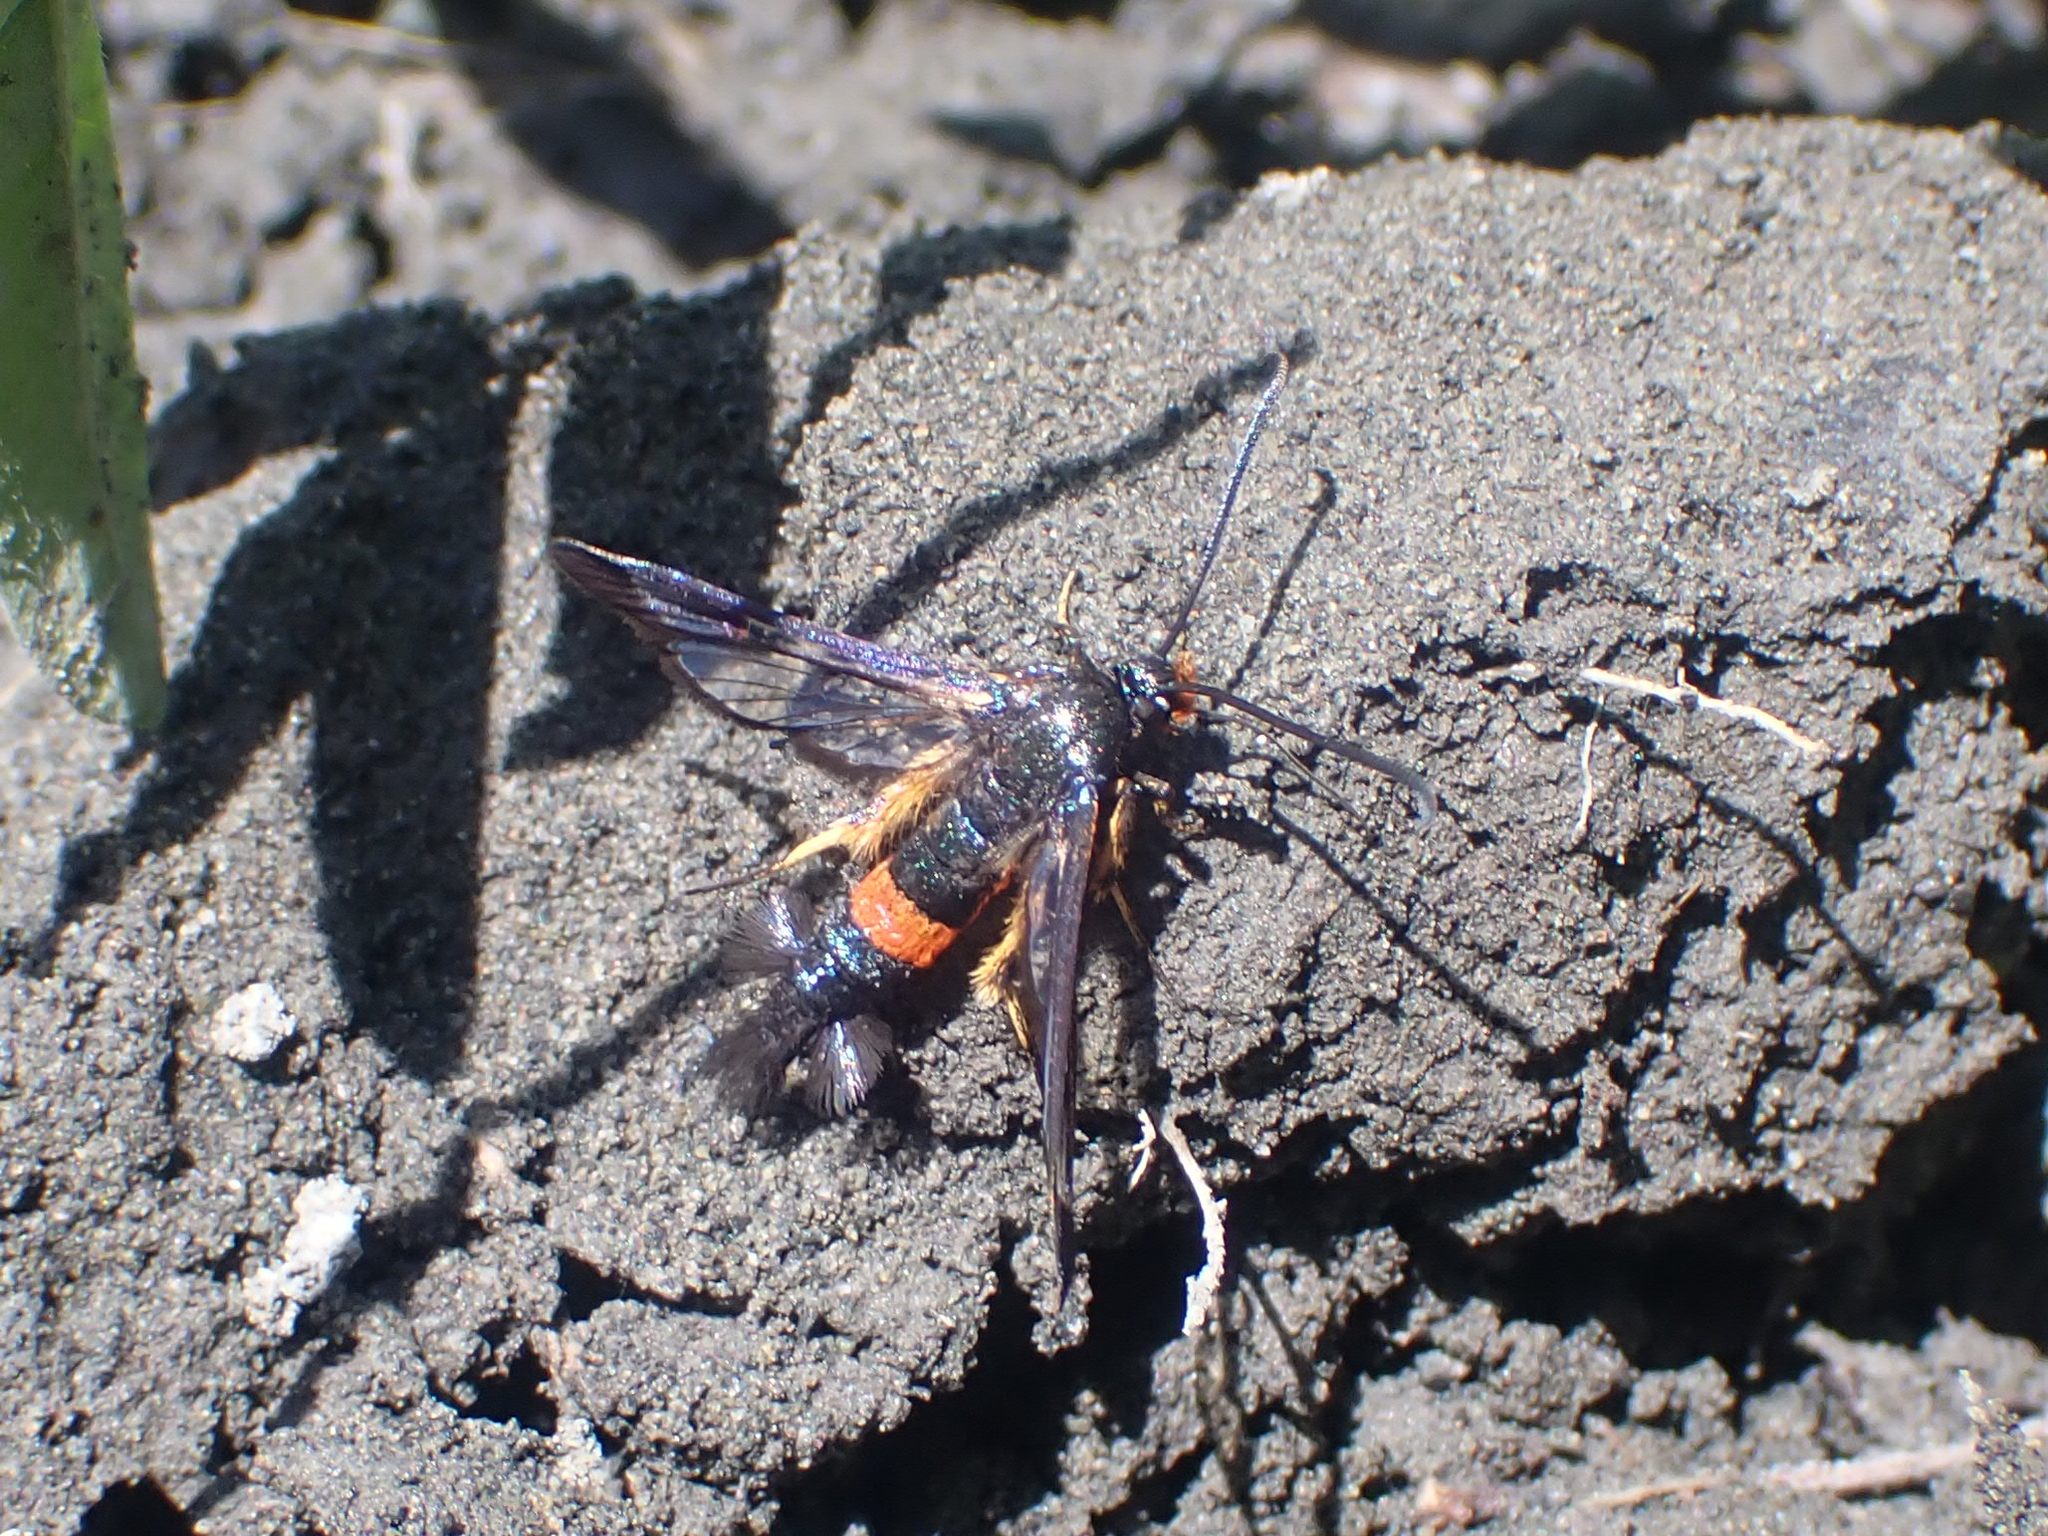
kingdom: Animalia
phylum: Arthropoda
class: Insecta
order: Lepidoptera
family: Sesiidae
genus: Synanthedon
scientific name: Synanthedon culiciformis
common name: Large red-belted clearwing
